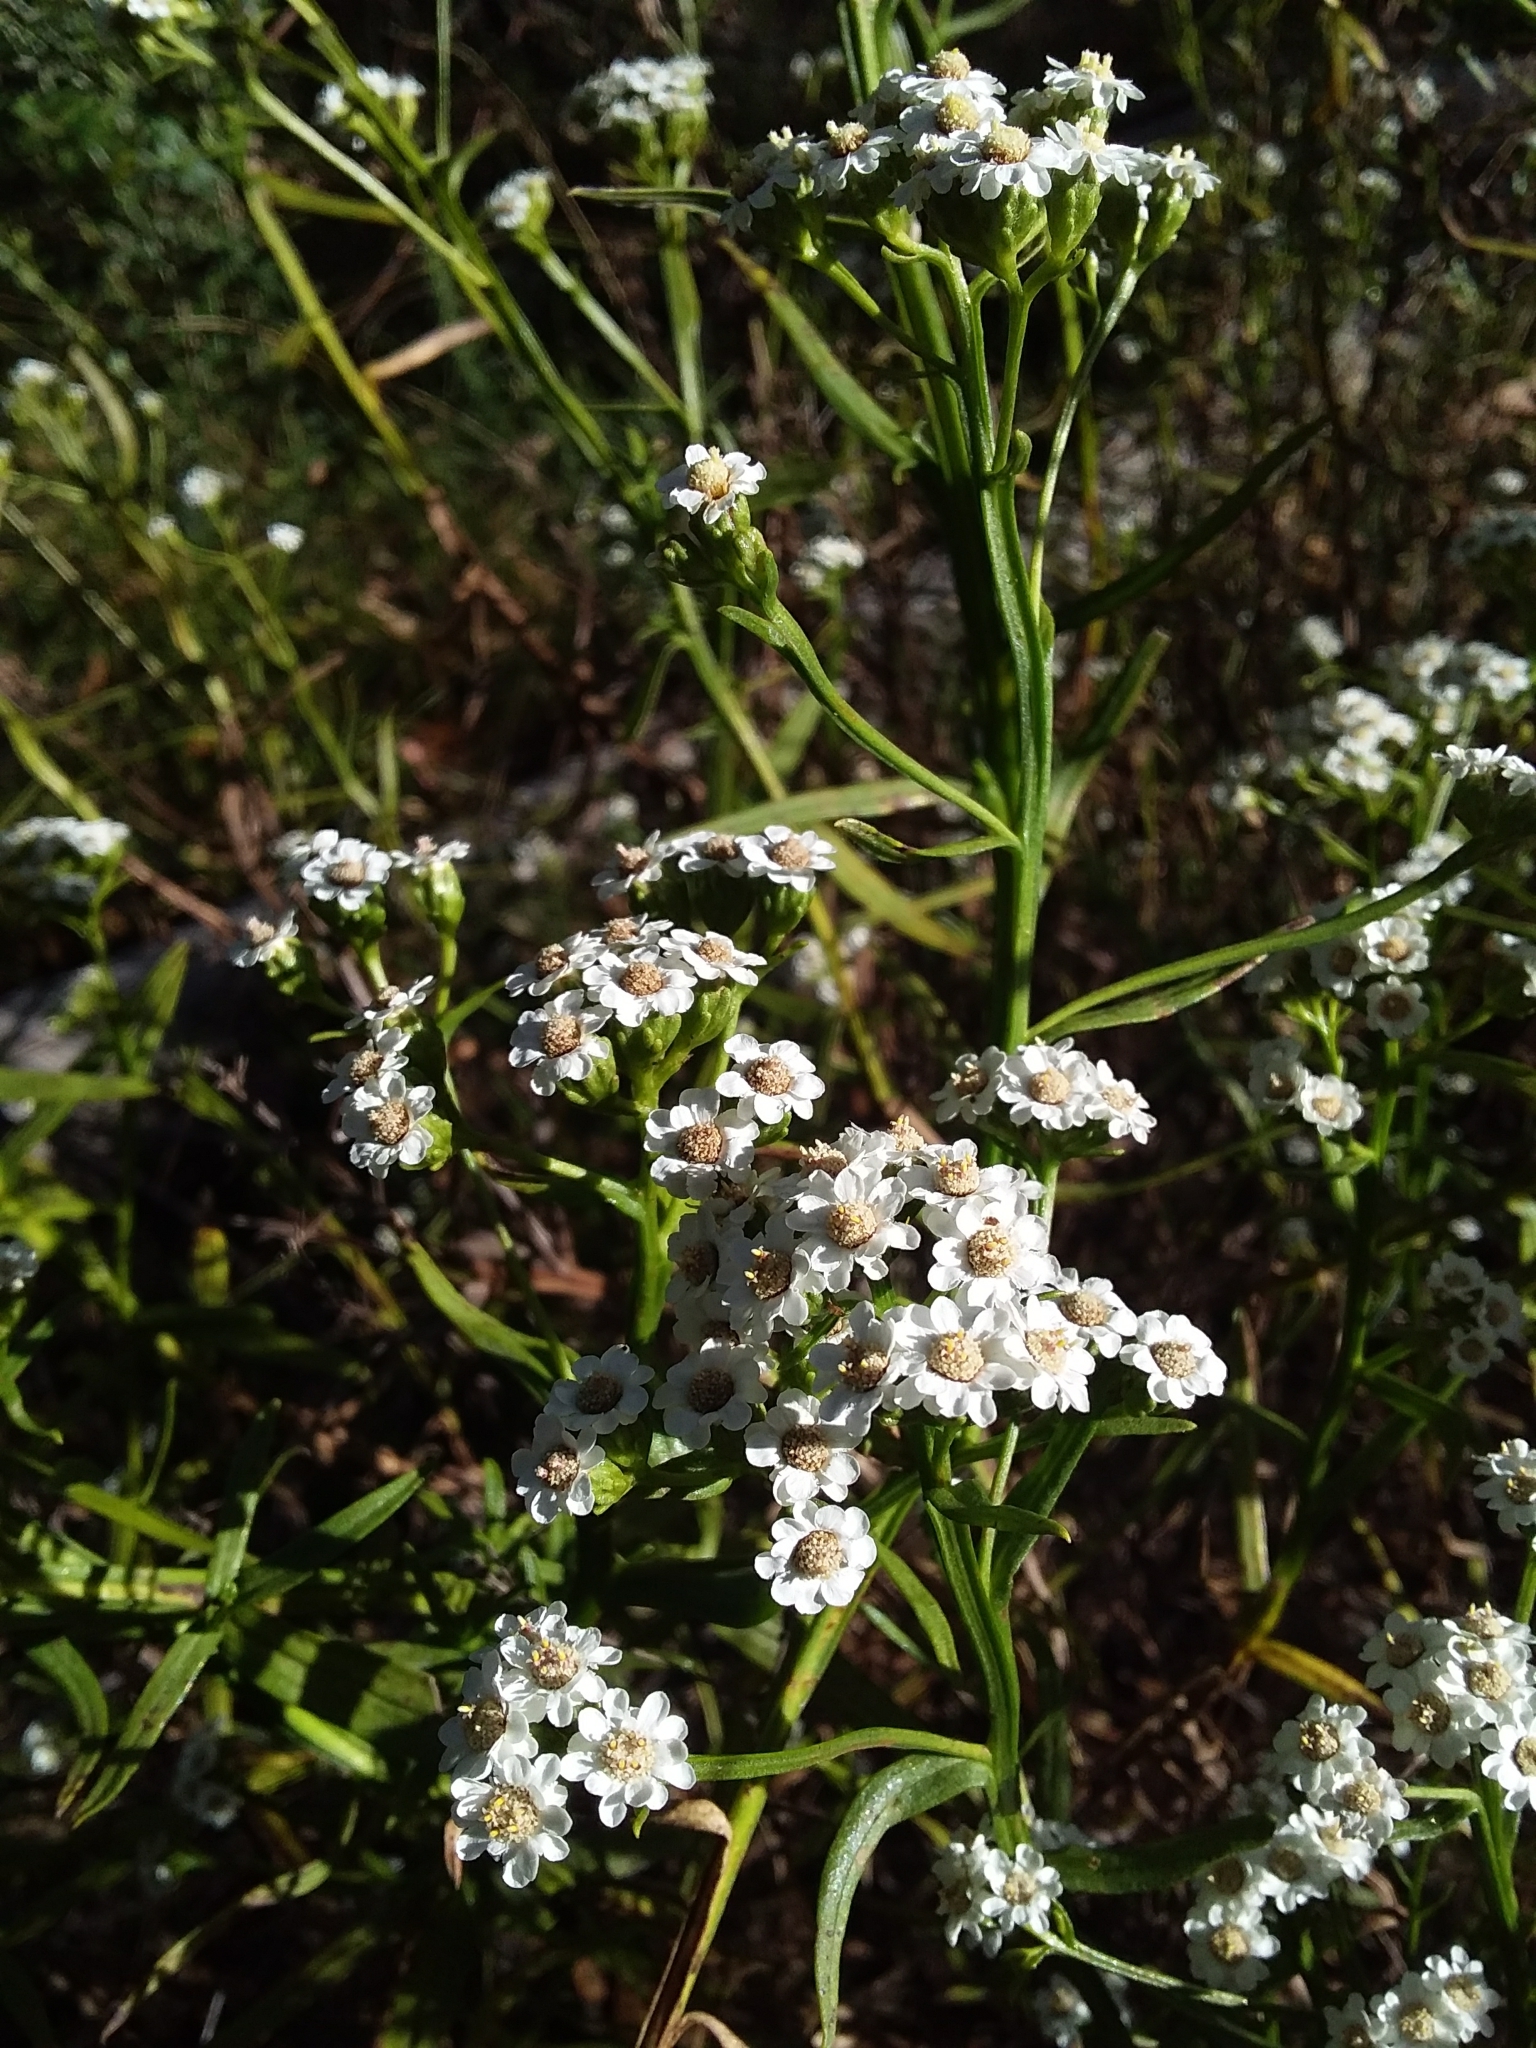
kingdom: Plantae
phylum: Tracheophyta
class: Magnoliopsida
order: Asterales
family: Asteraceae
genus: Ixodia
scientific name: Ixodia achillaeoides
